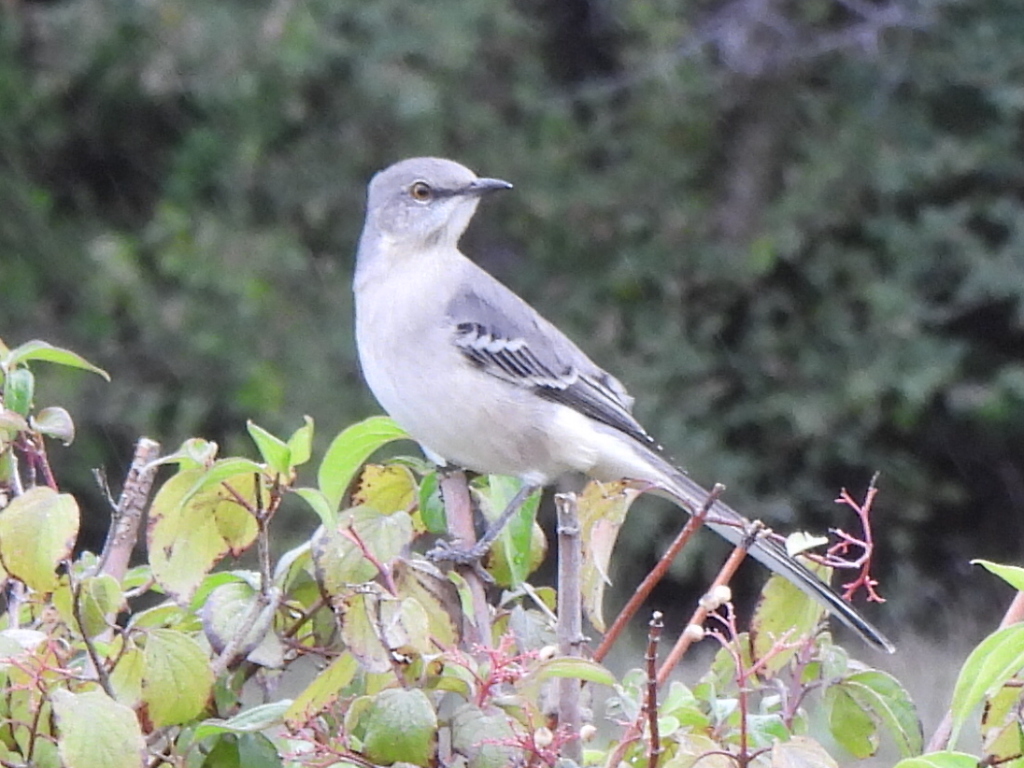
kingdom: Animalia
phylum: Chordata
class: Aves
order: Passeriformes
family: Mimidae
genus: Mimus
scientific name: Mimus polyglottos
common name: Northern mockingbird
